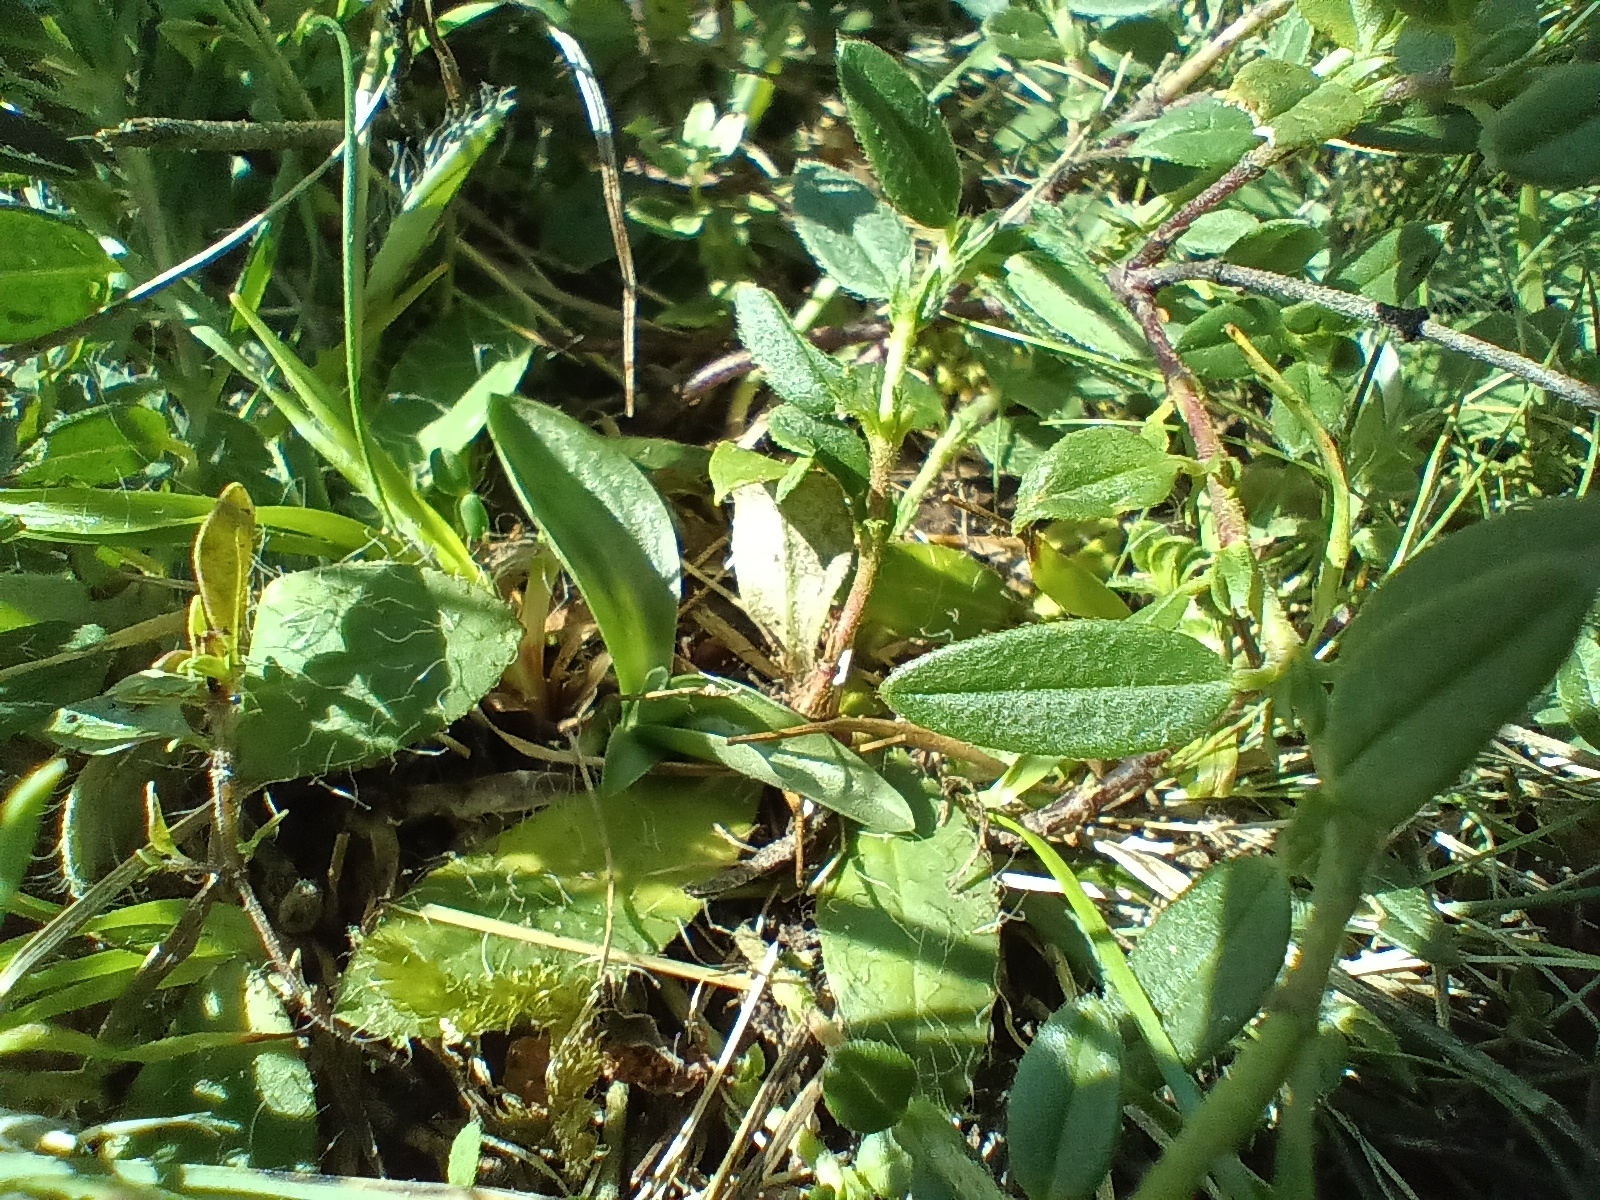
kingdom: Plantae
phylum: Tracheophyta
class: Liliopsida
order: Asparagales
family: Orchidaceae
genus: Spiranthes
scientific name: Spiranthes spiralis
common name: Autumn lady's-tresses
